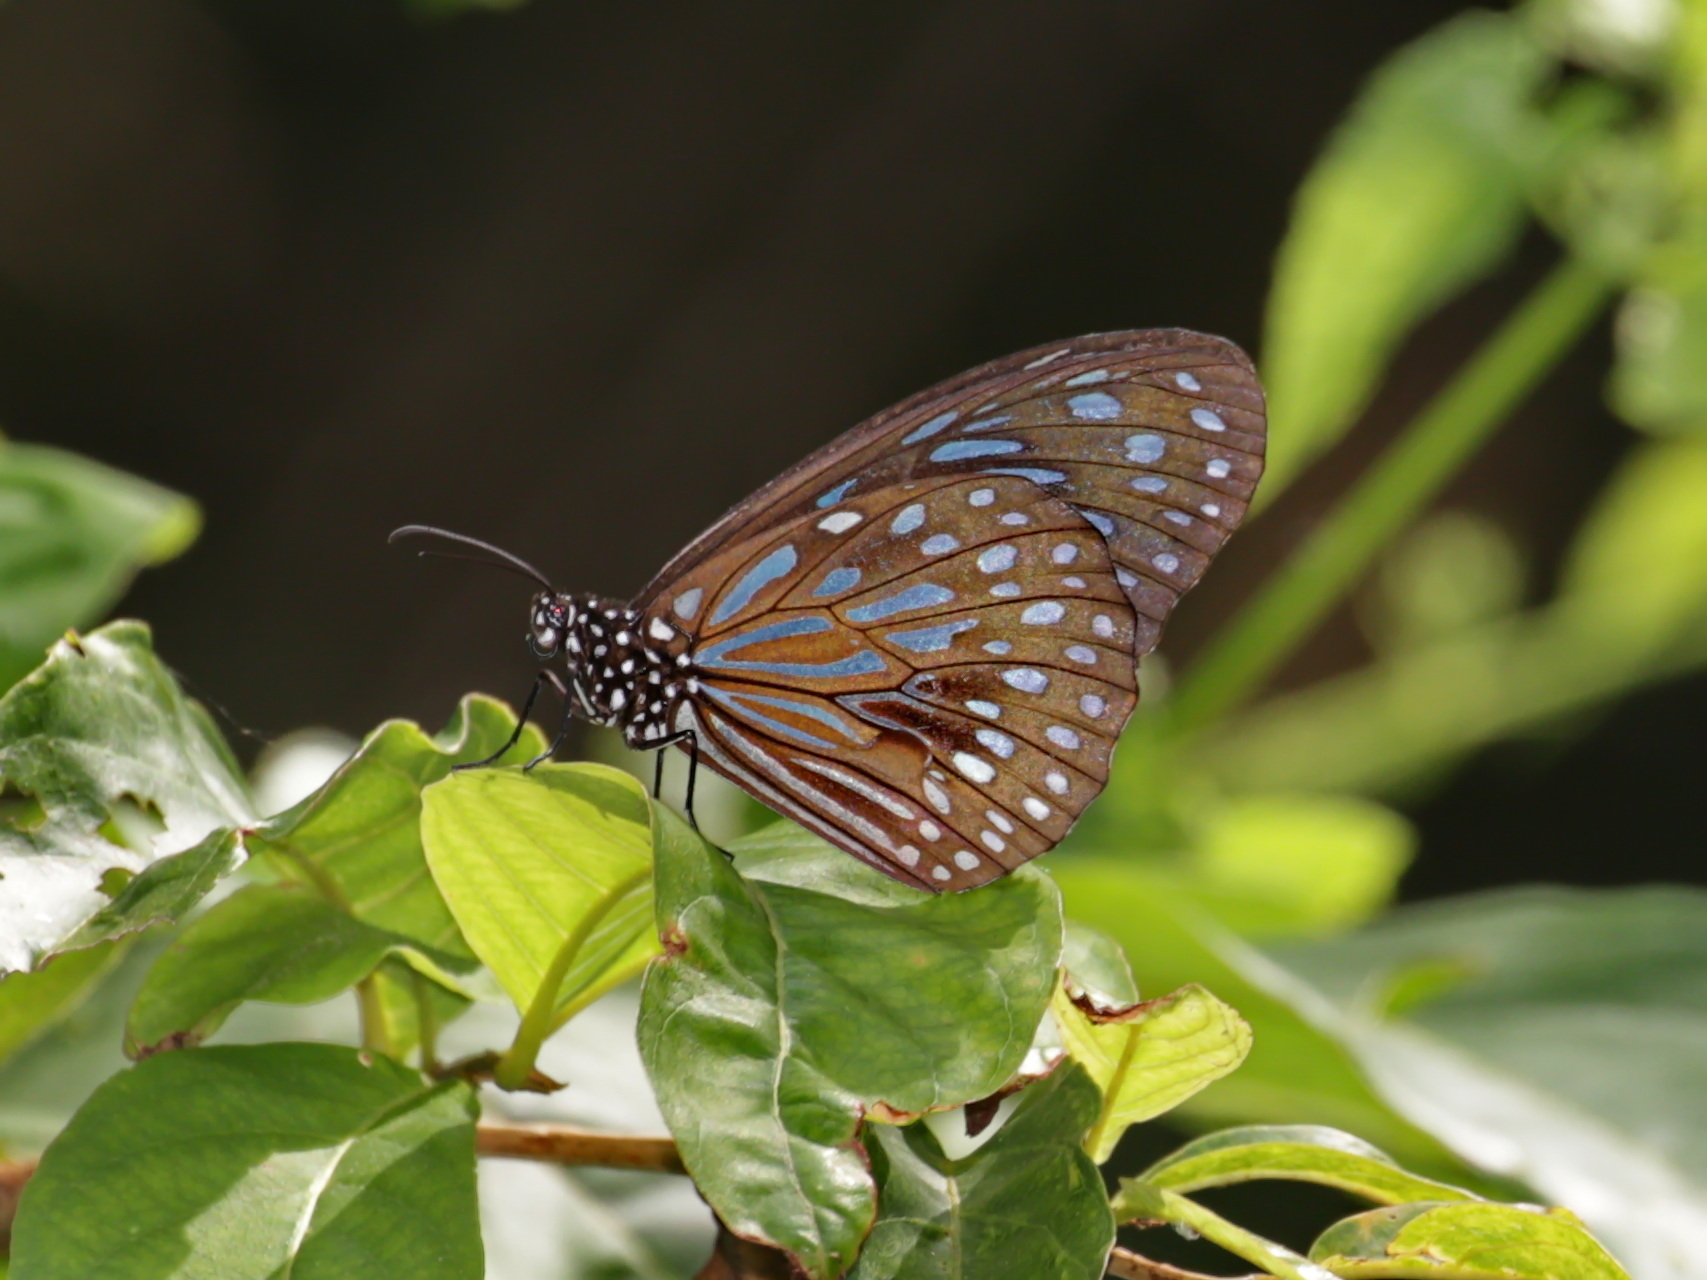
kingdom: Animalia
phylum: Arthropoda
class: Insecta
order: Lepidoptera
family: Nymphalidae
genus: Tirumala
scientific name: Tirumala septentrionis
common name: Dark blue tiger butterfly
